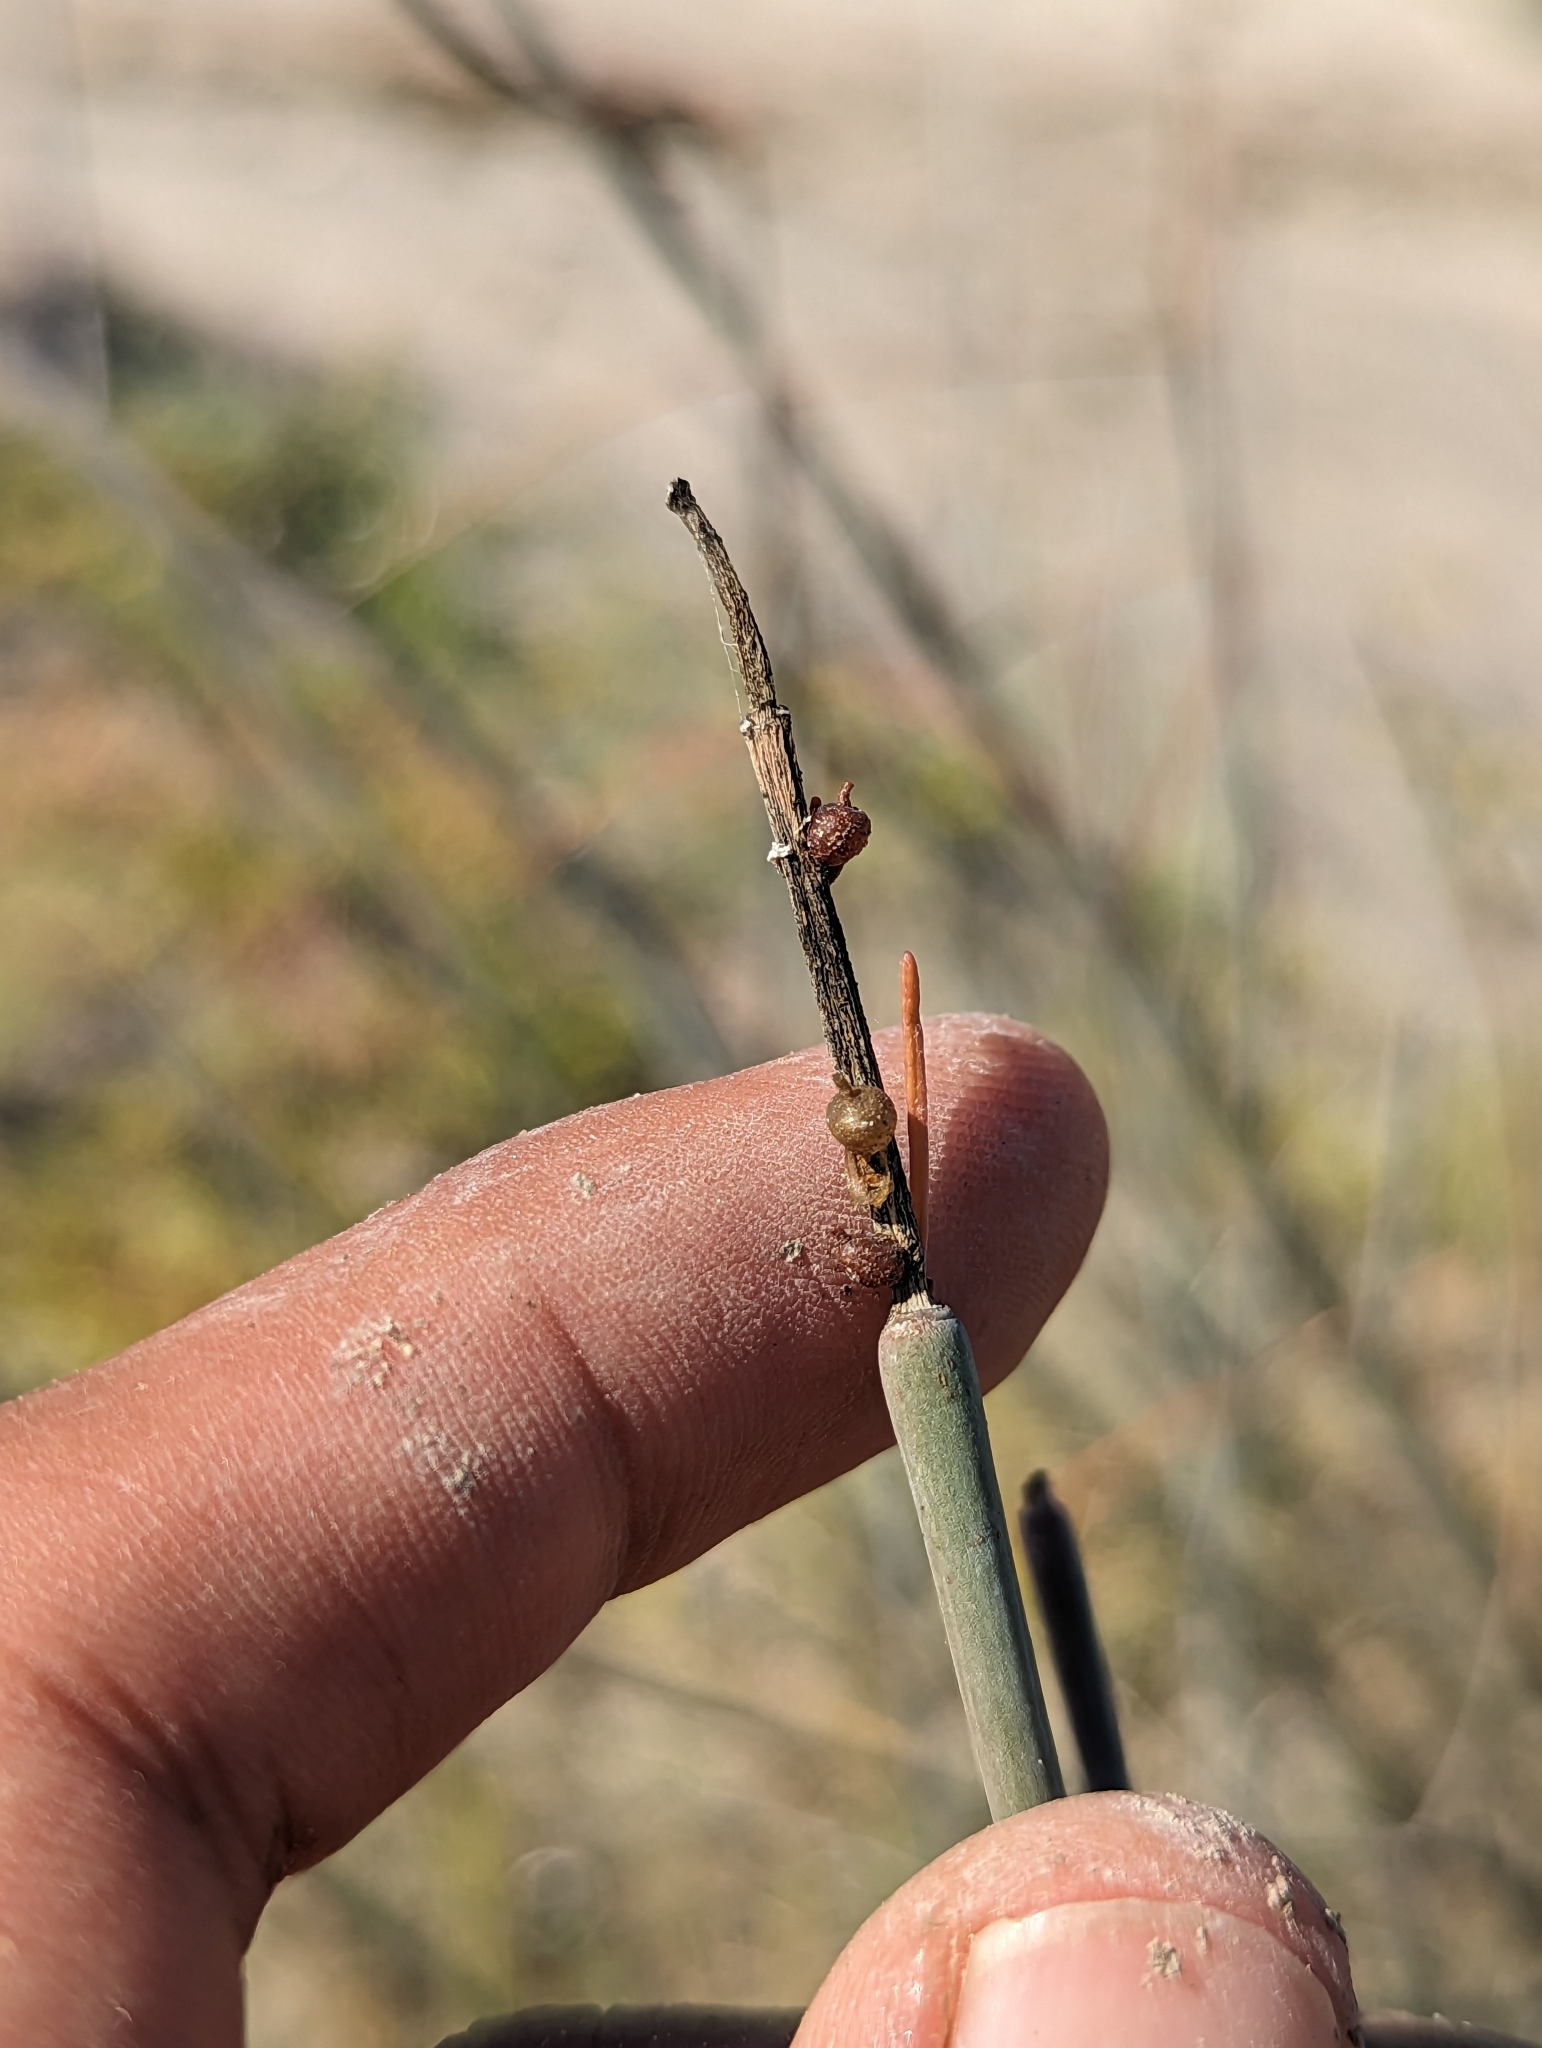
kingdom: Plantae
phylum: Tracheophyta
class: Magnoliopsida
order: Gentianales
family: Apocynaceae
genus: Asclepias
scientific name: Asclepias subulata
